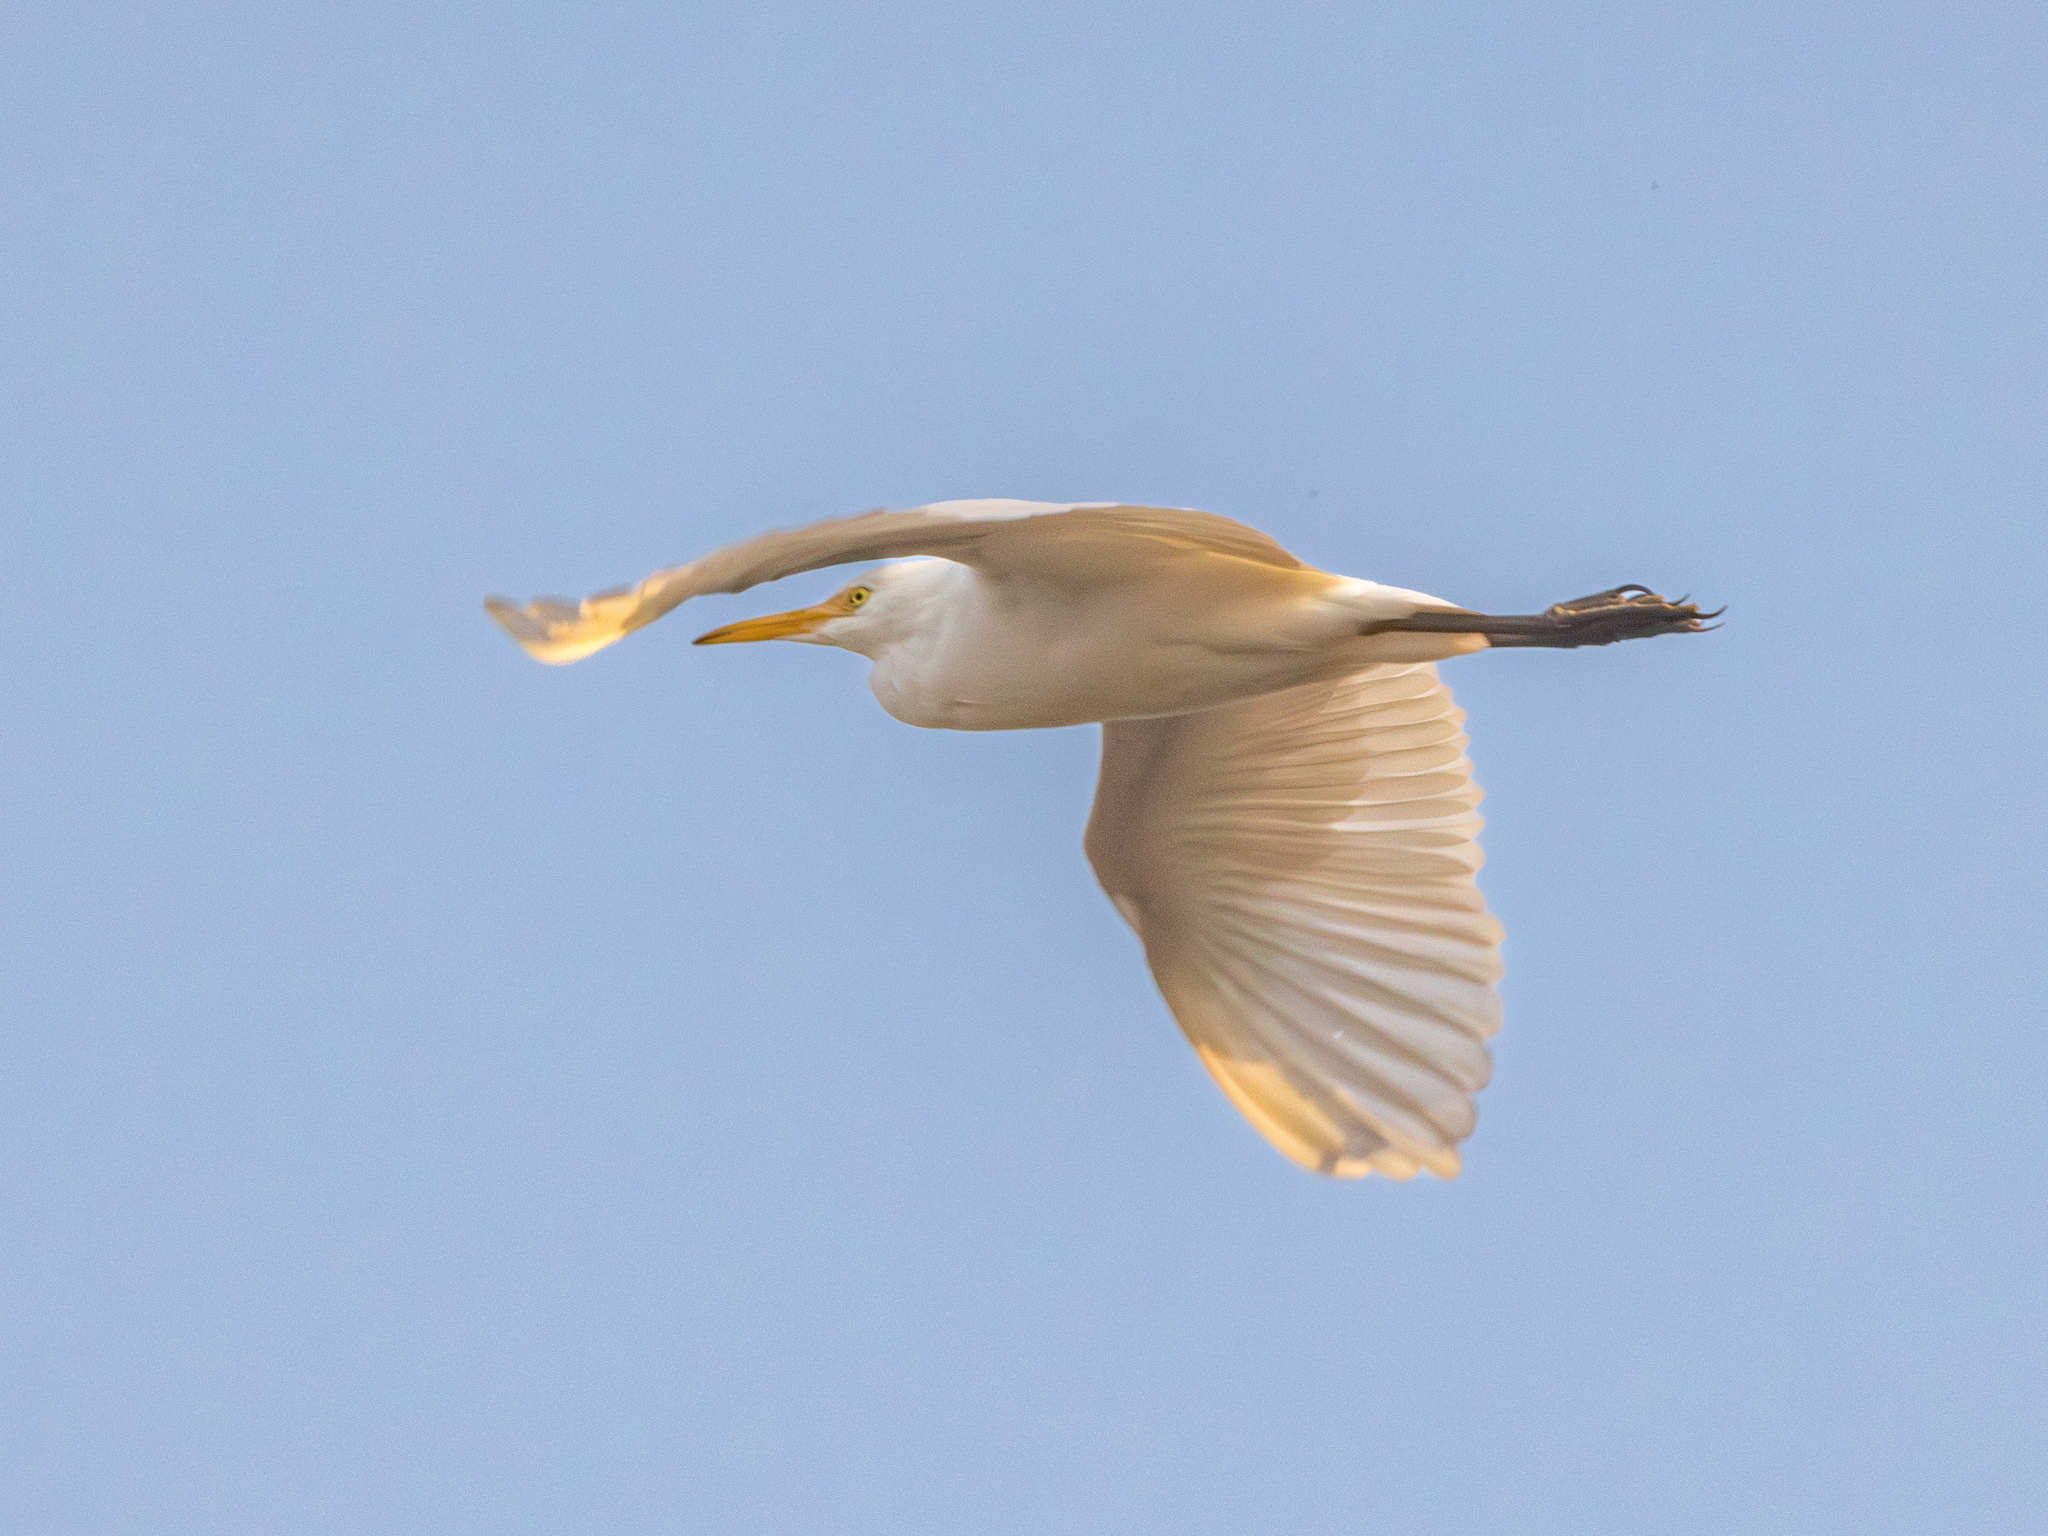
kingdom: Animalia
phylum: Chordata
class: Aves
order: Pelecaniformes
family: Ardeidae
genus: Bubulcus
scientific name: Bubulcus ibis
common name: Cattle egret
